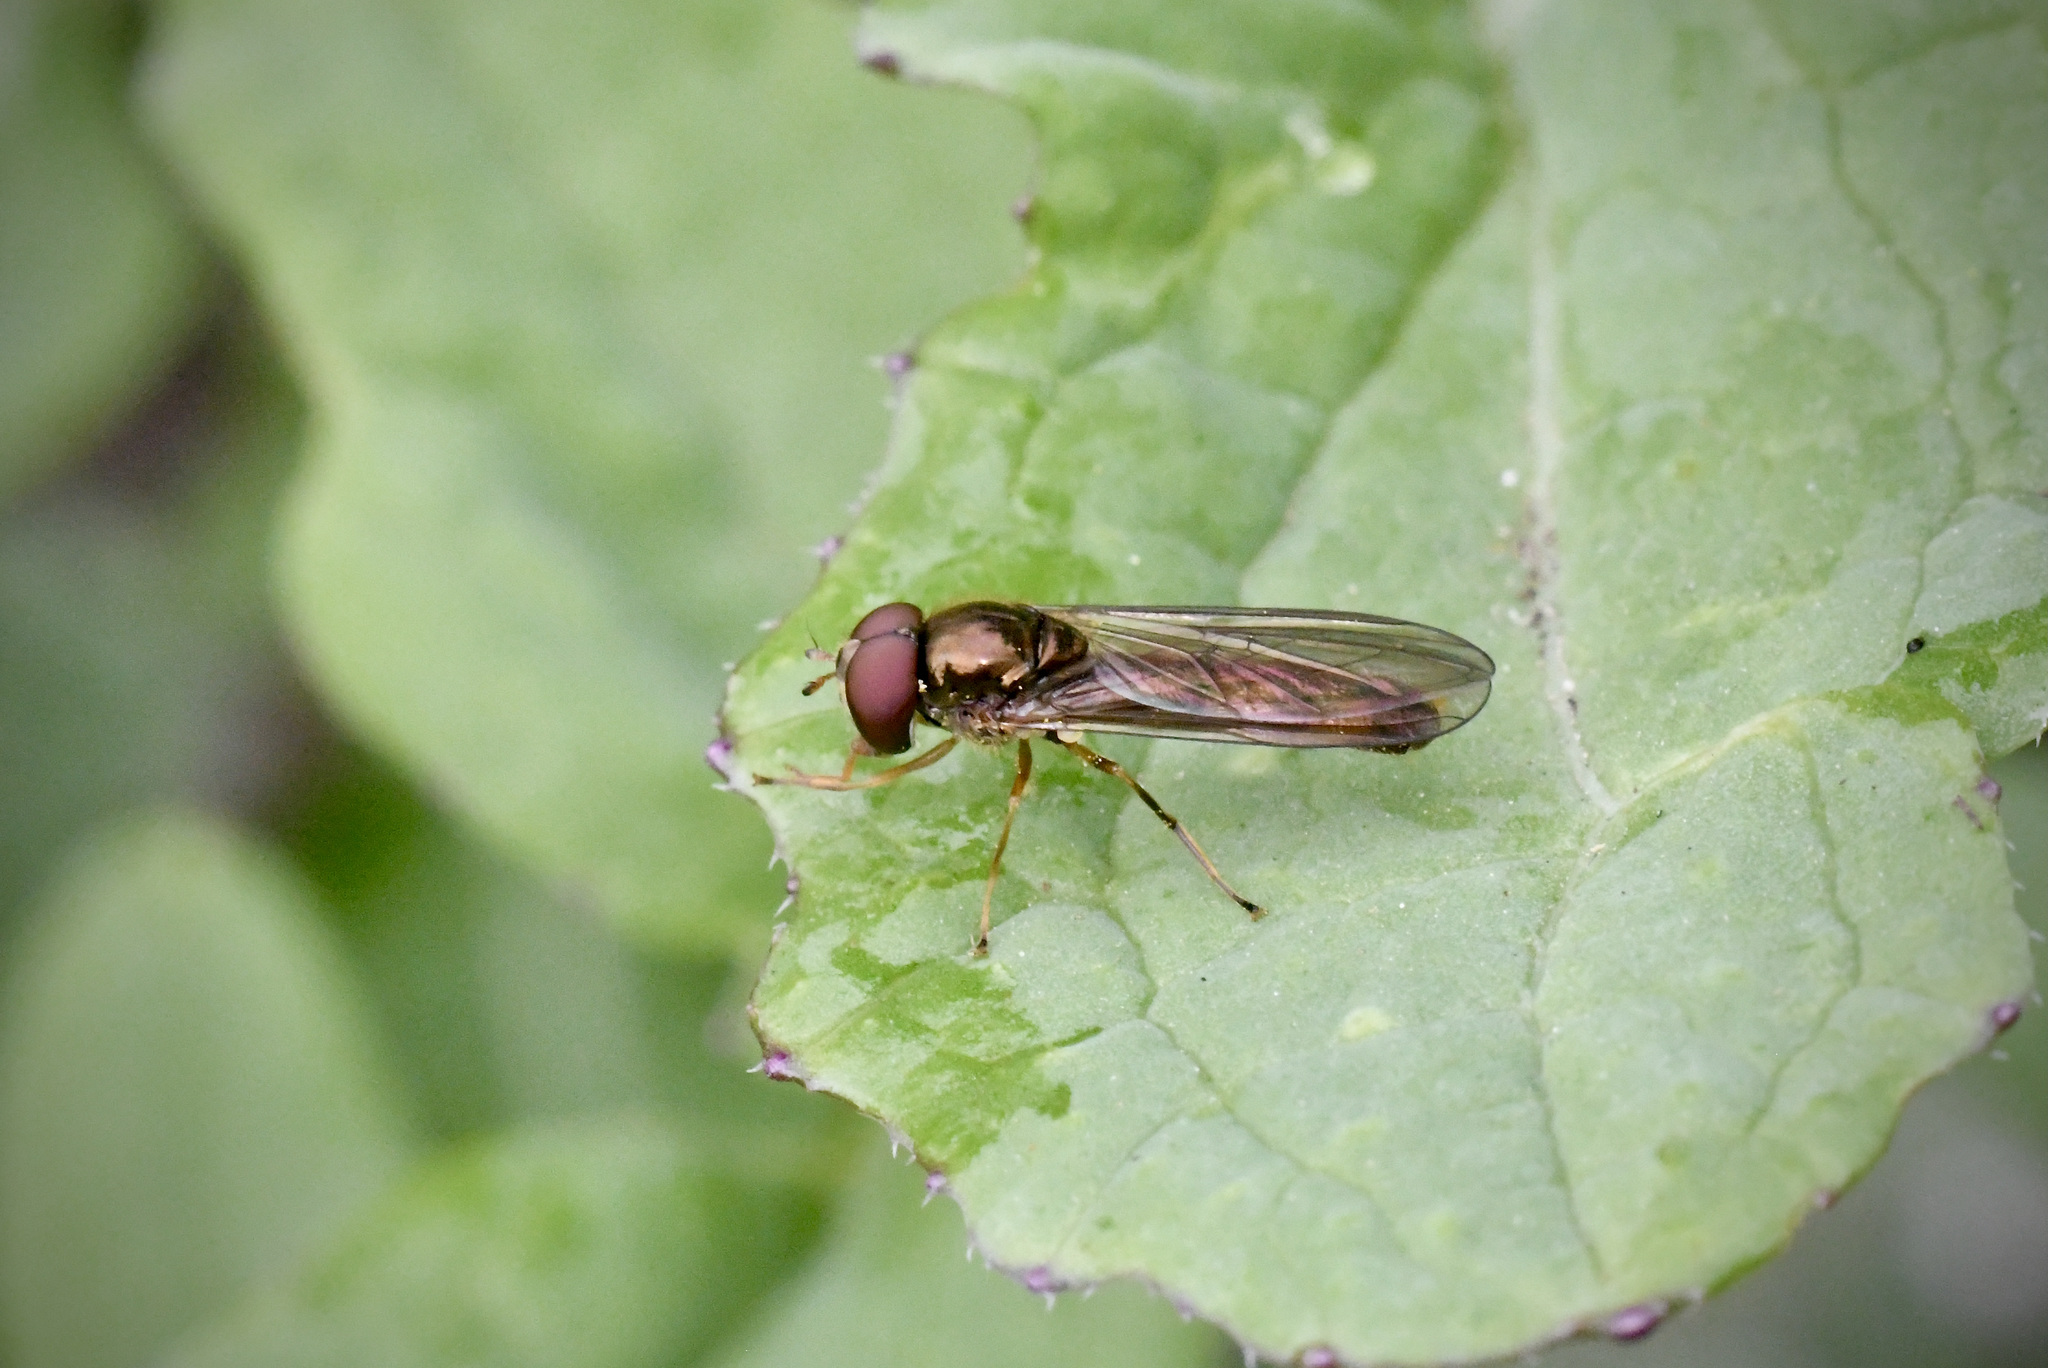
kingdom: Animalia
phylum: Arthropoda
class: Insecta
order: Diptera
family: Syrphidae
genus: Melanostoma
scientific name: Melanostoma scalare
